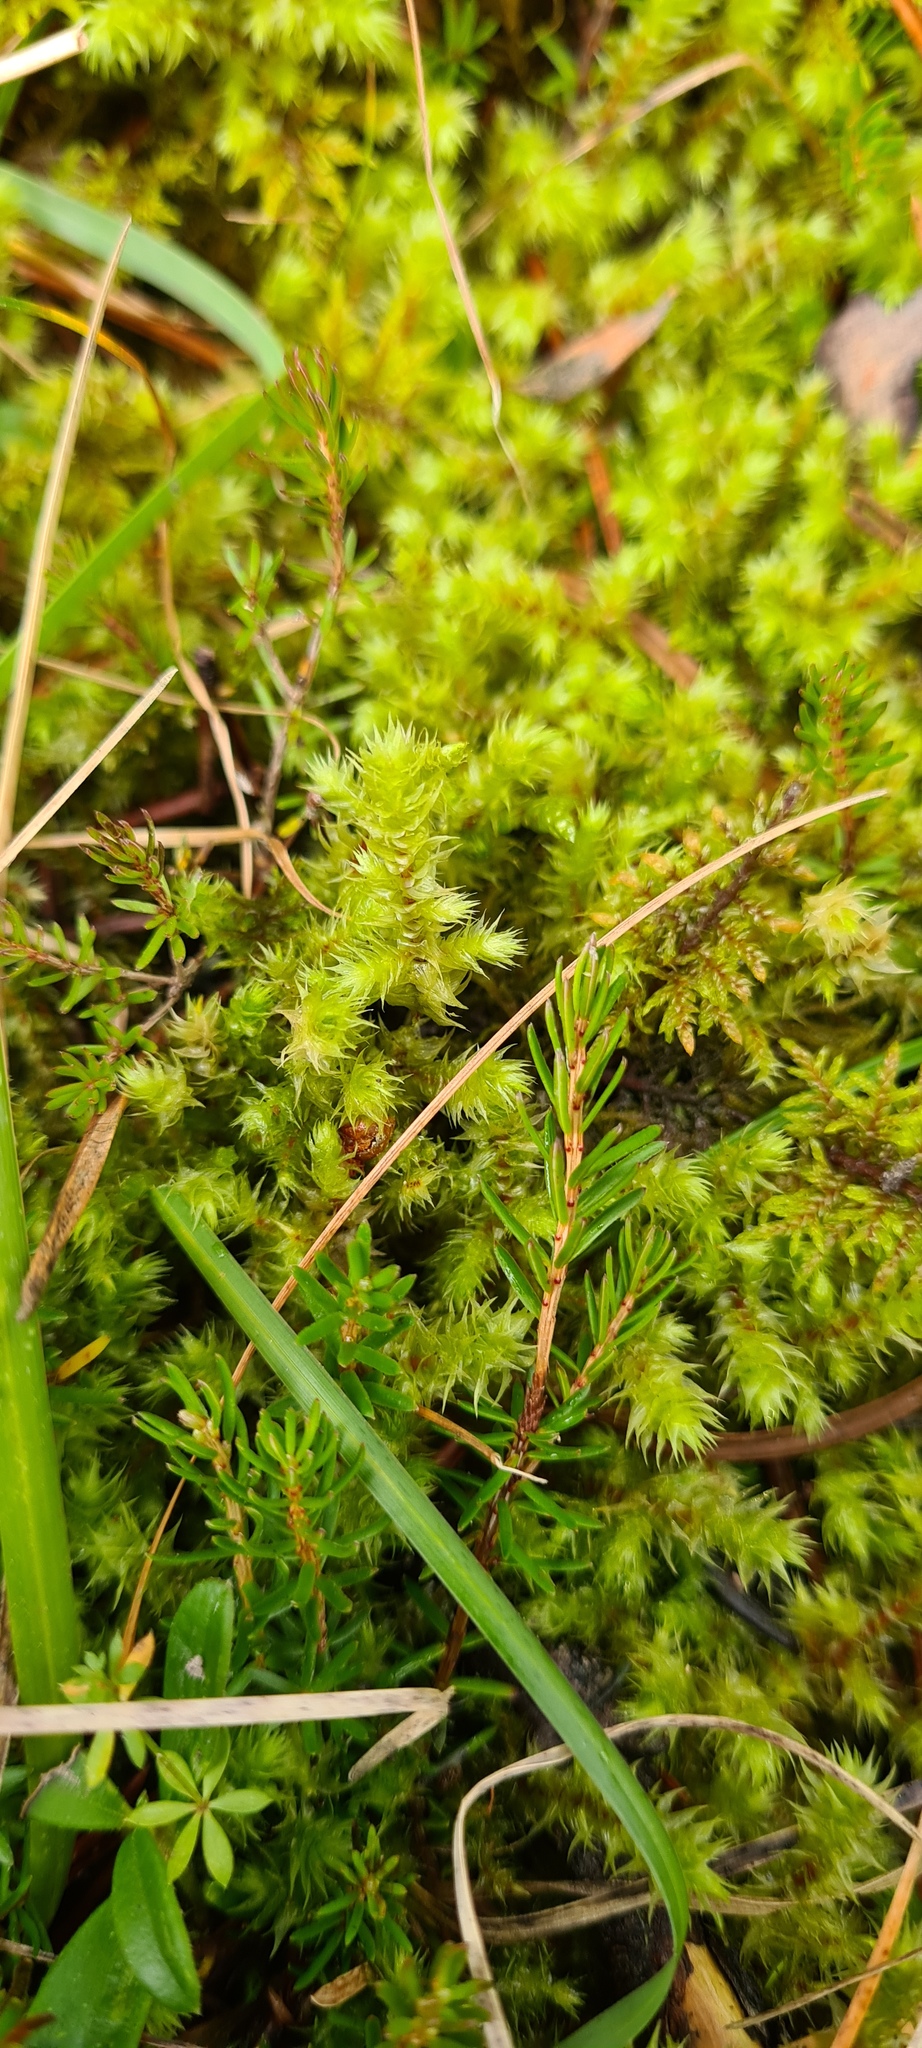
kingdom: Plantae
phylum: Bryophyta
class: Bryopsida
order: Hypnales
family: Hylocomiaceae
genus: Hylocomiadelphus
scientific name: Hylocomiadelphus triquetrus
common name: Rough goose neck moss
